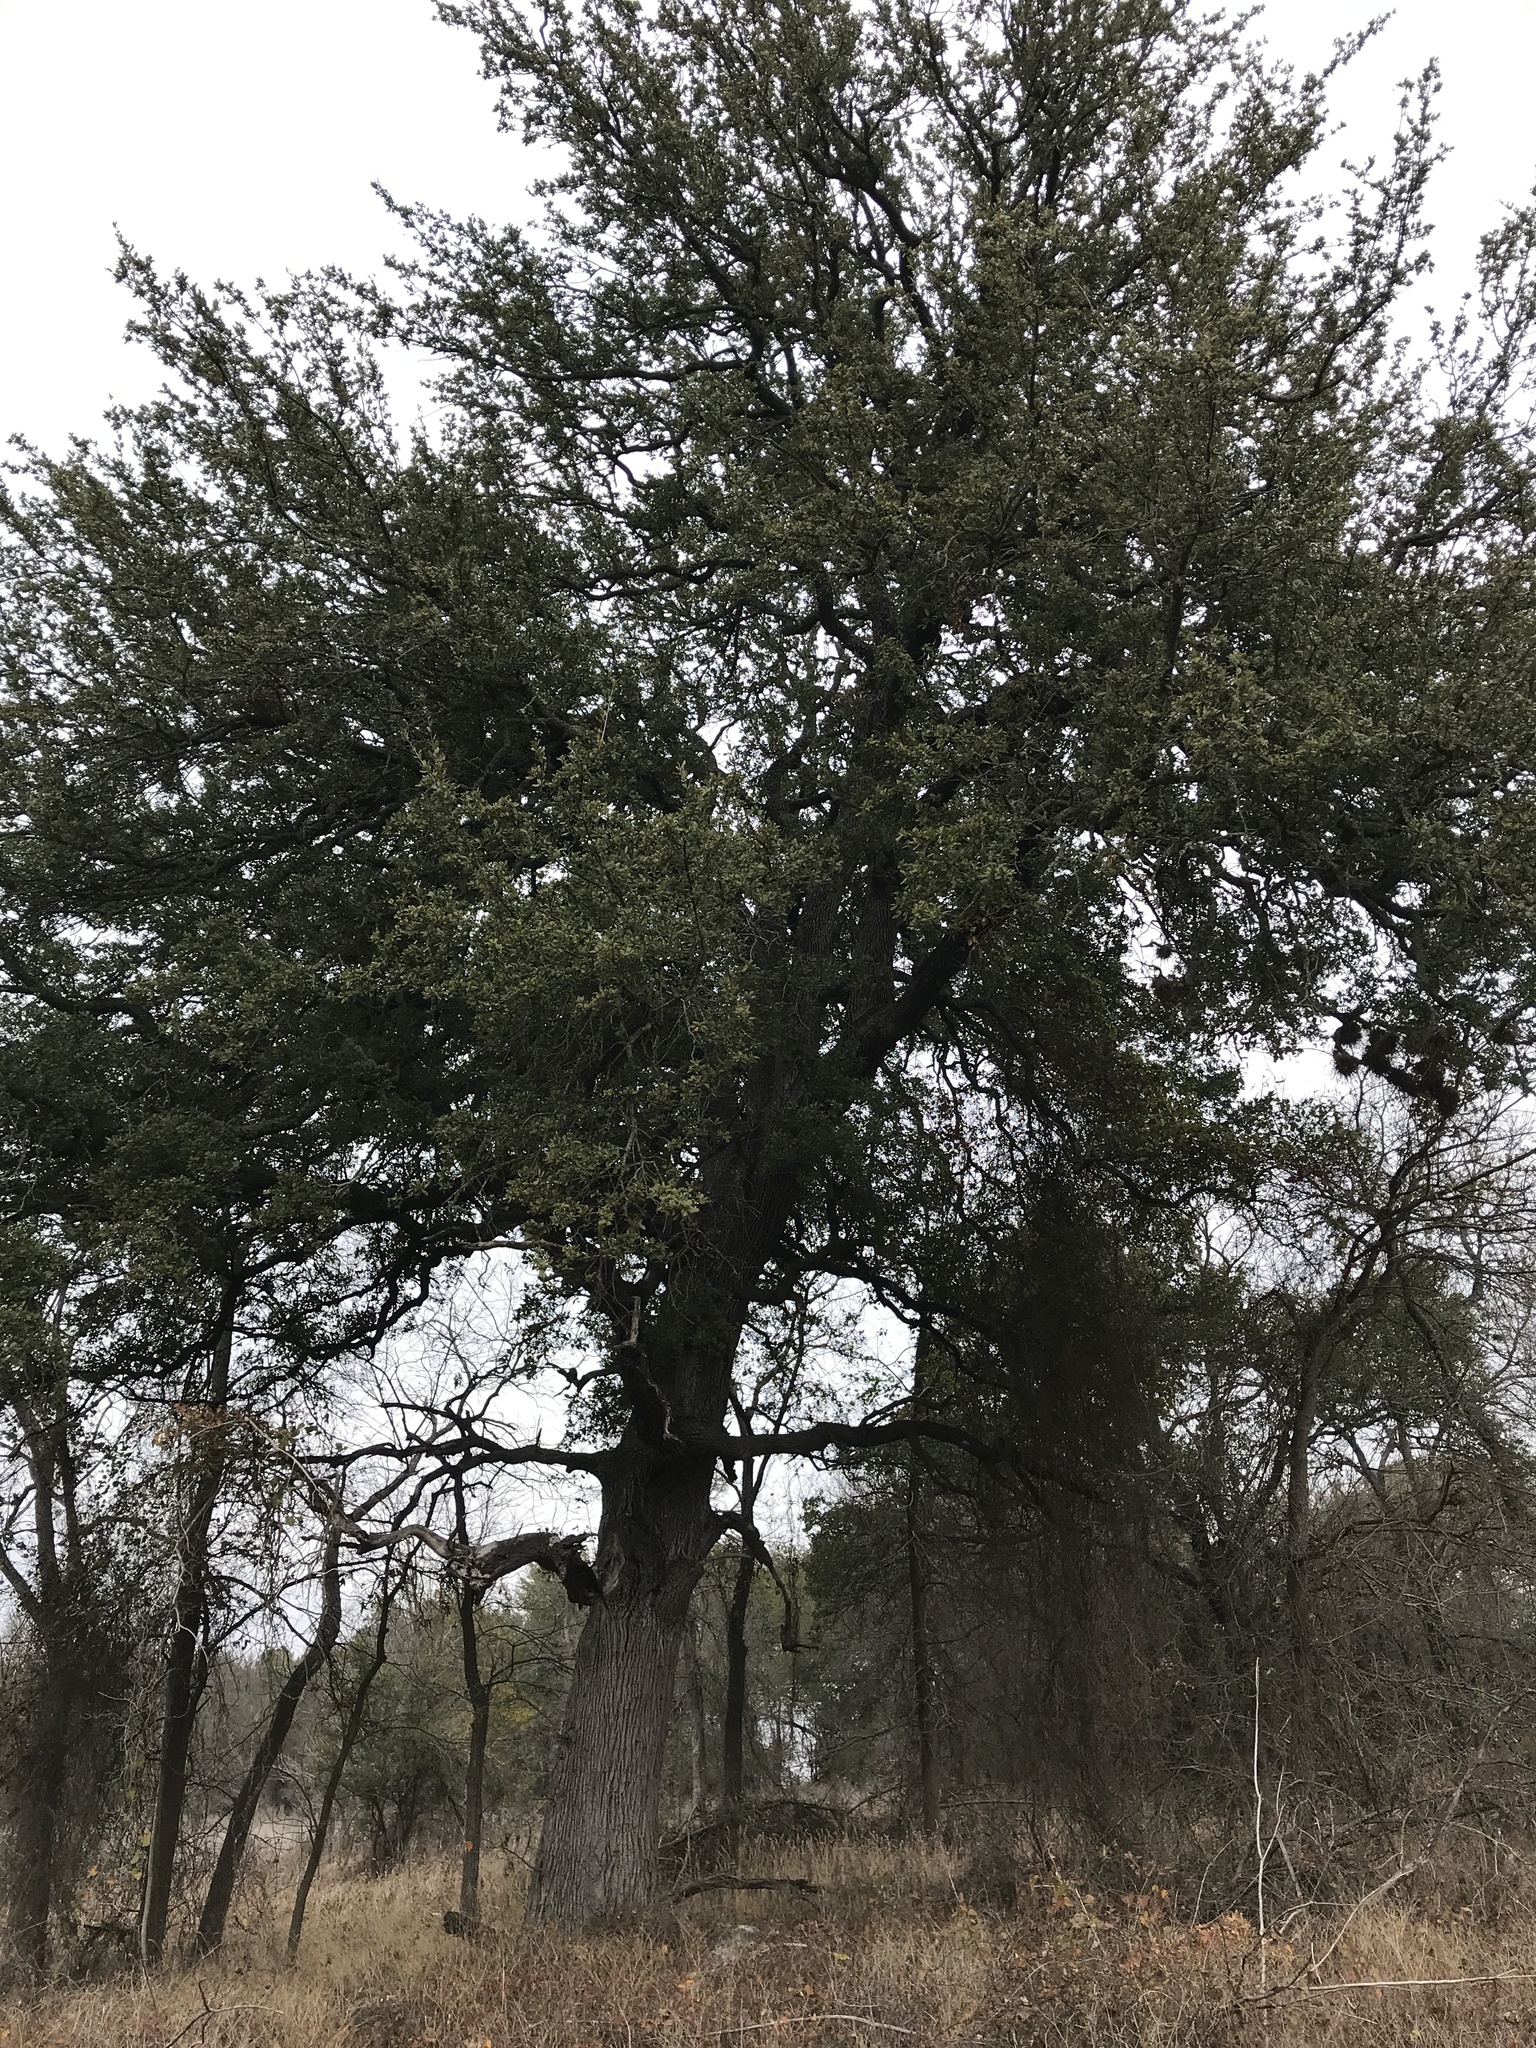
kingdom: Plantae
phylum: Tracheophyta
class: Magnoliopsida
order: Fagales
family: Fagaceae
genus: Quercus
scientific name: Quercus fusiformis
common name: Texas live oak
